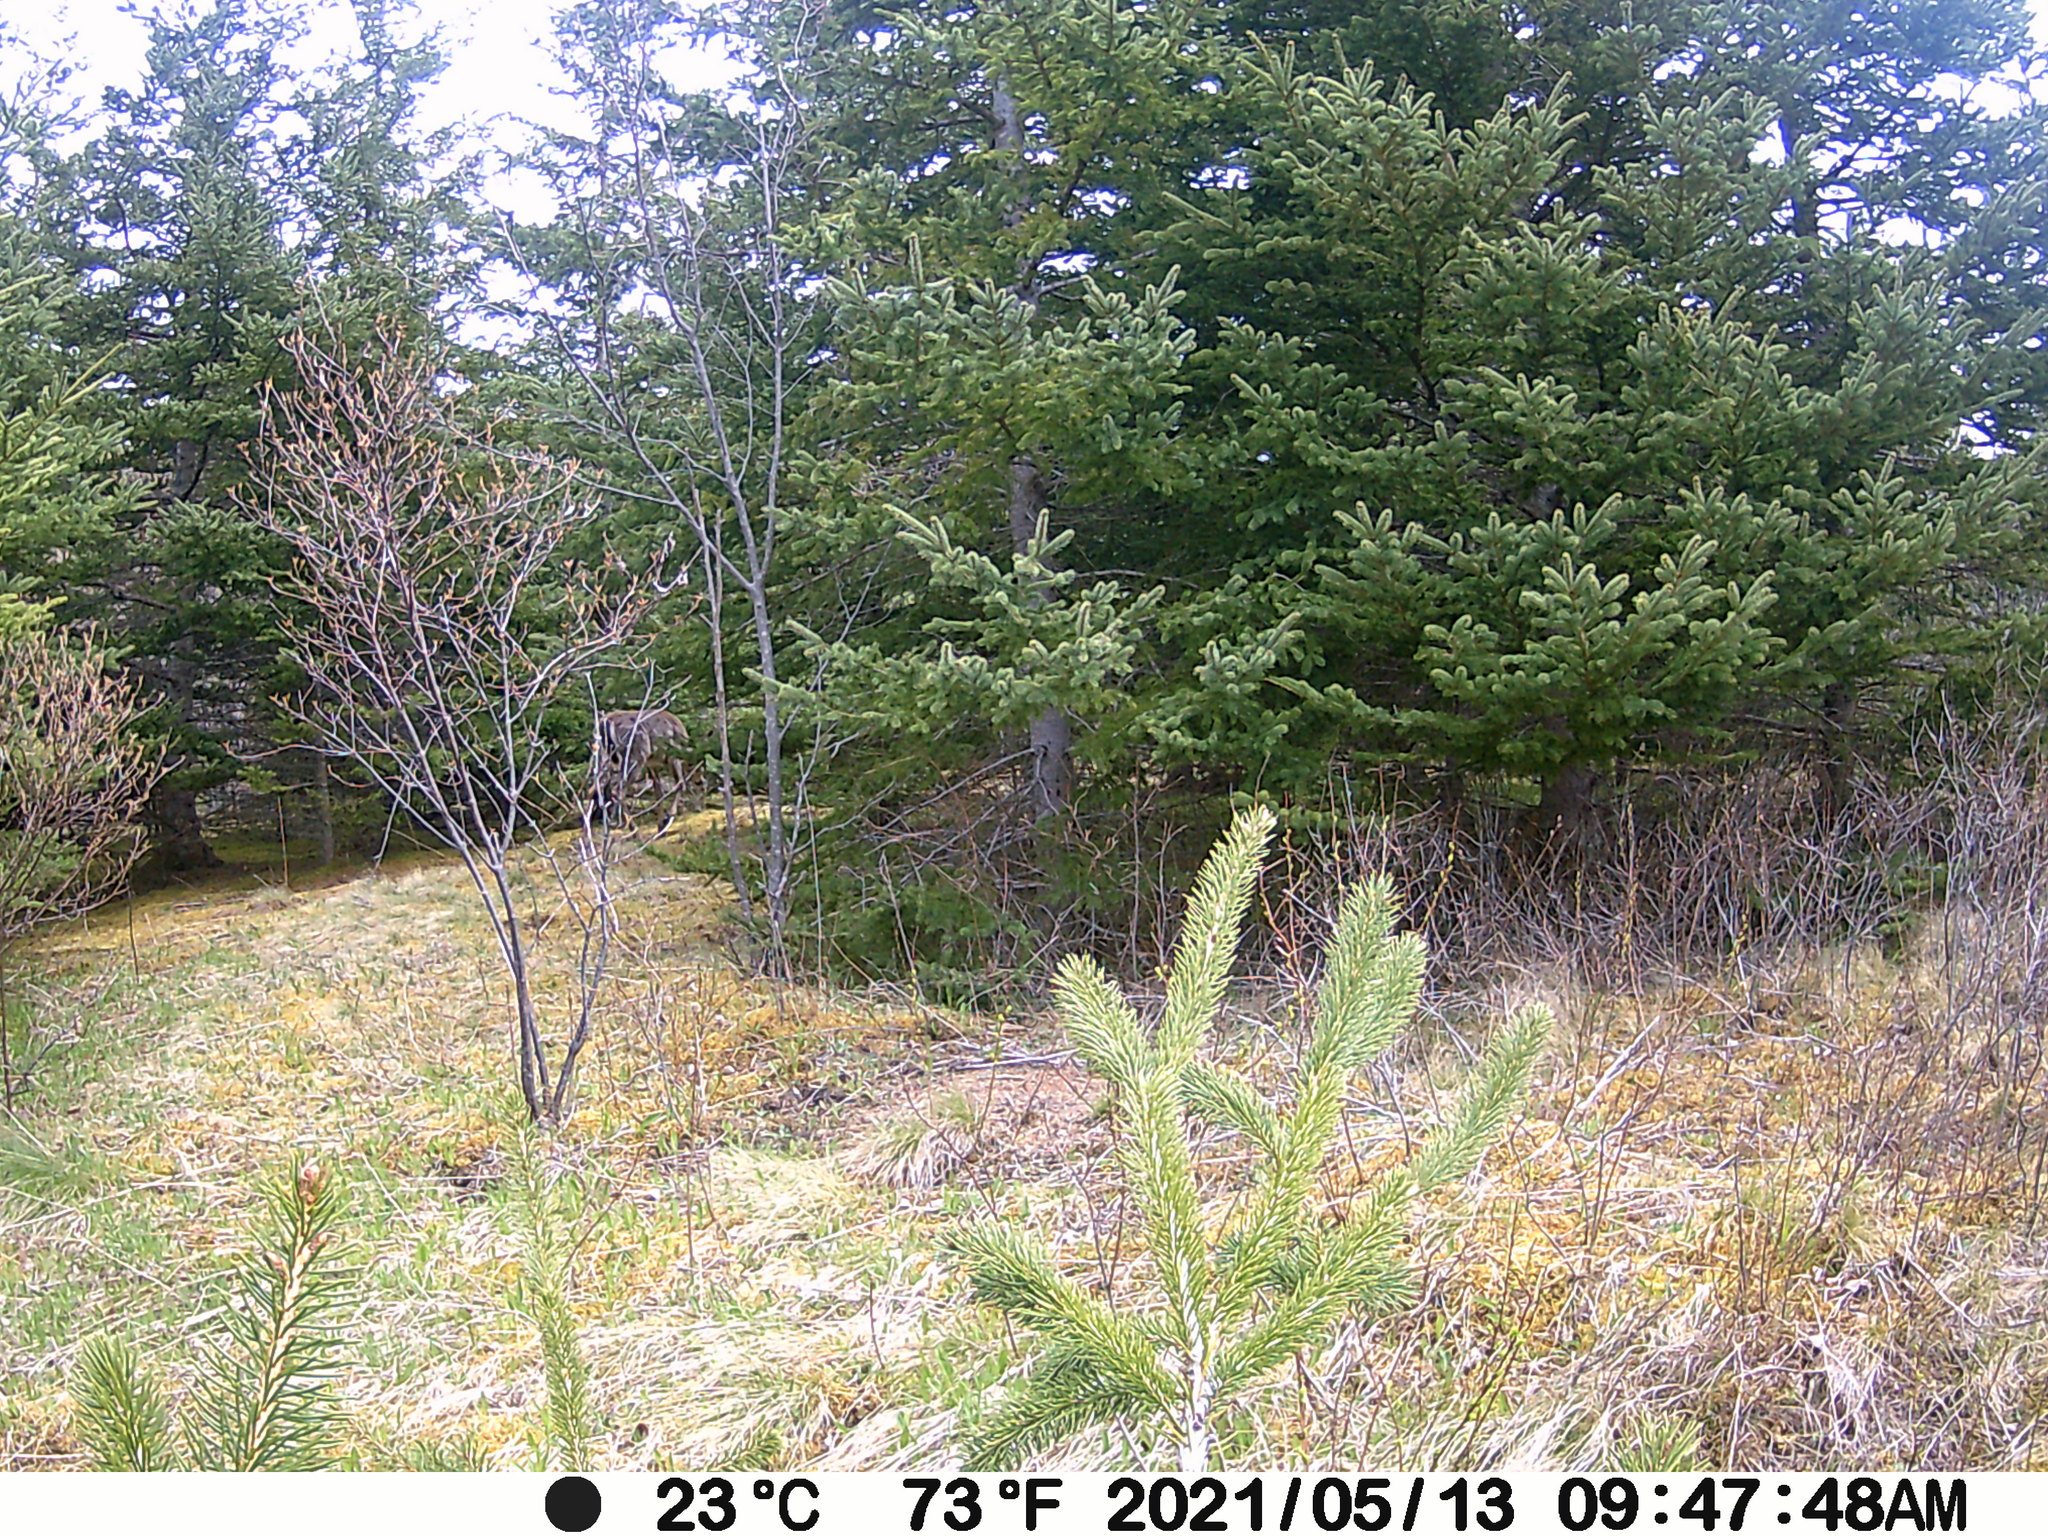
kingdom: Animalia
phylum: Chordata
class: Mammalia
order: Artiodactyla
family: Cervidae
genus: Odocoileus
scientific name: Odocoileus virginianus
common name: White-tailed deer
